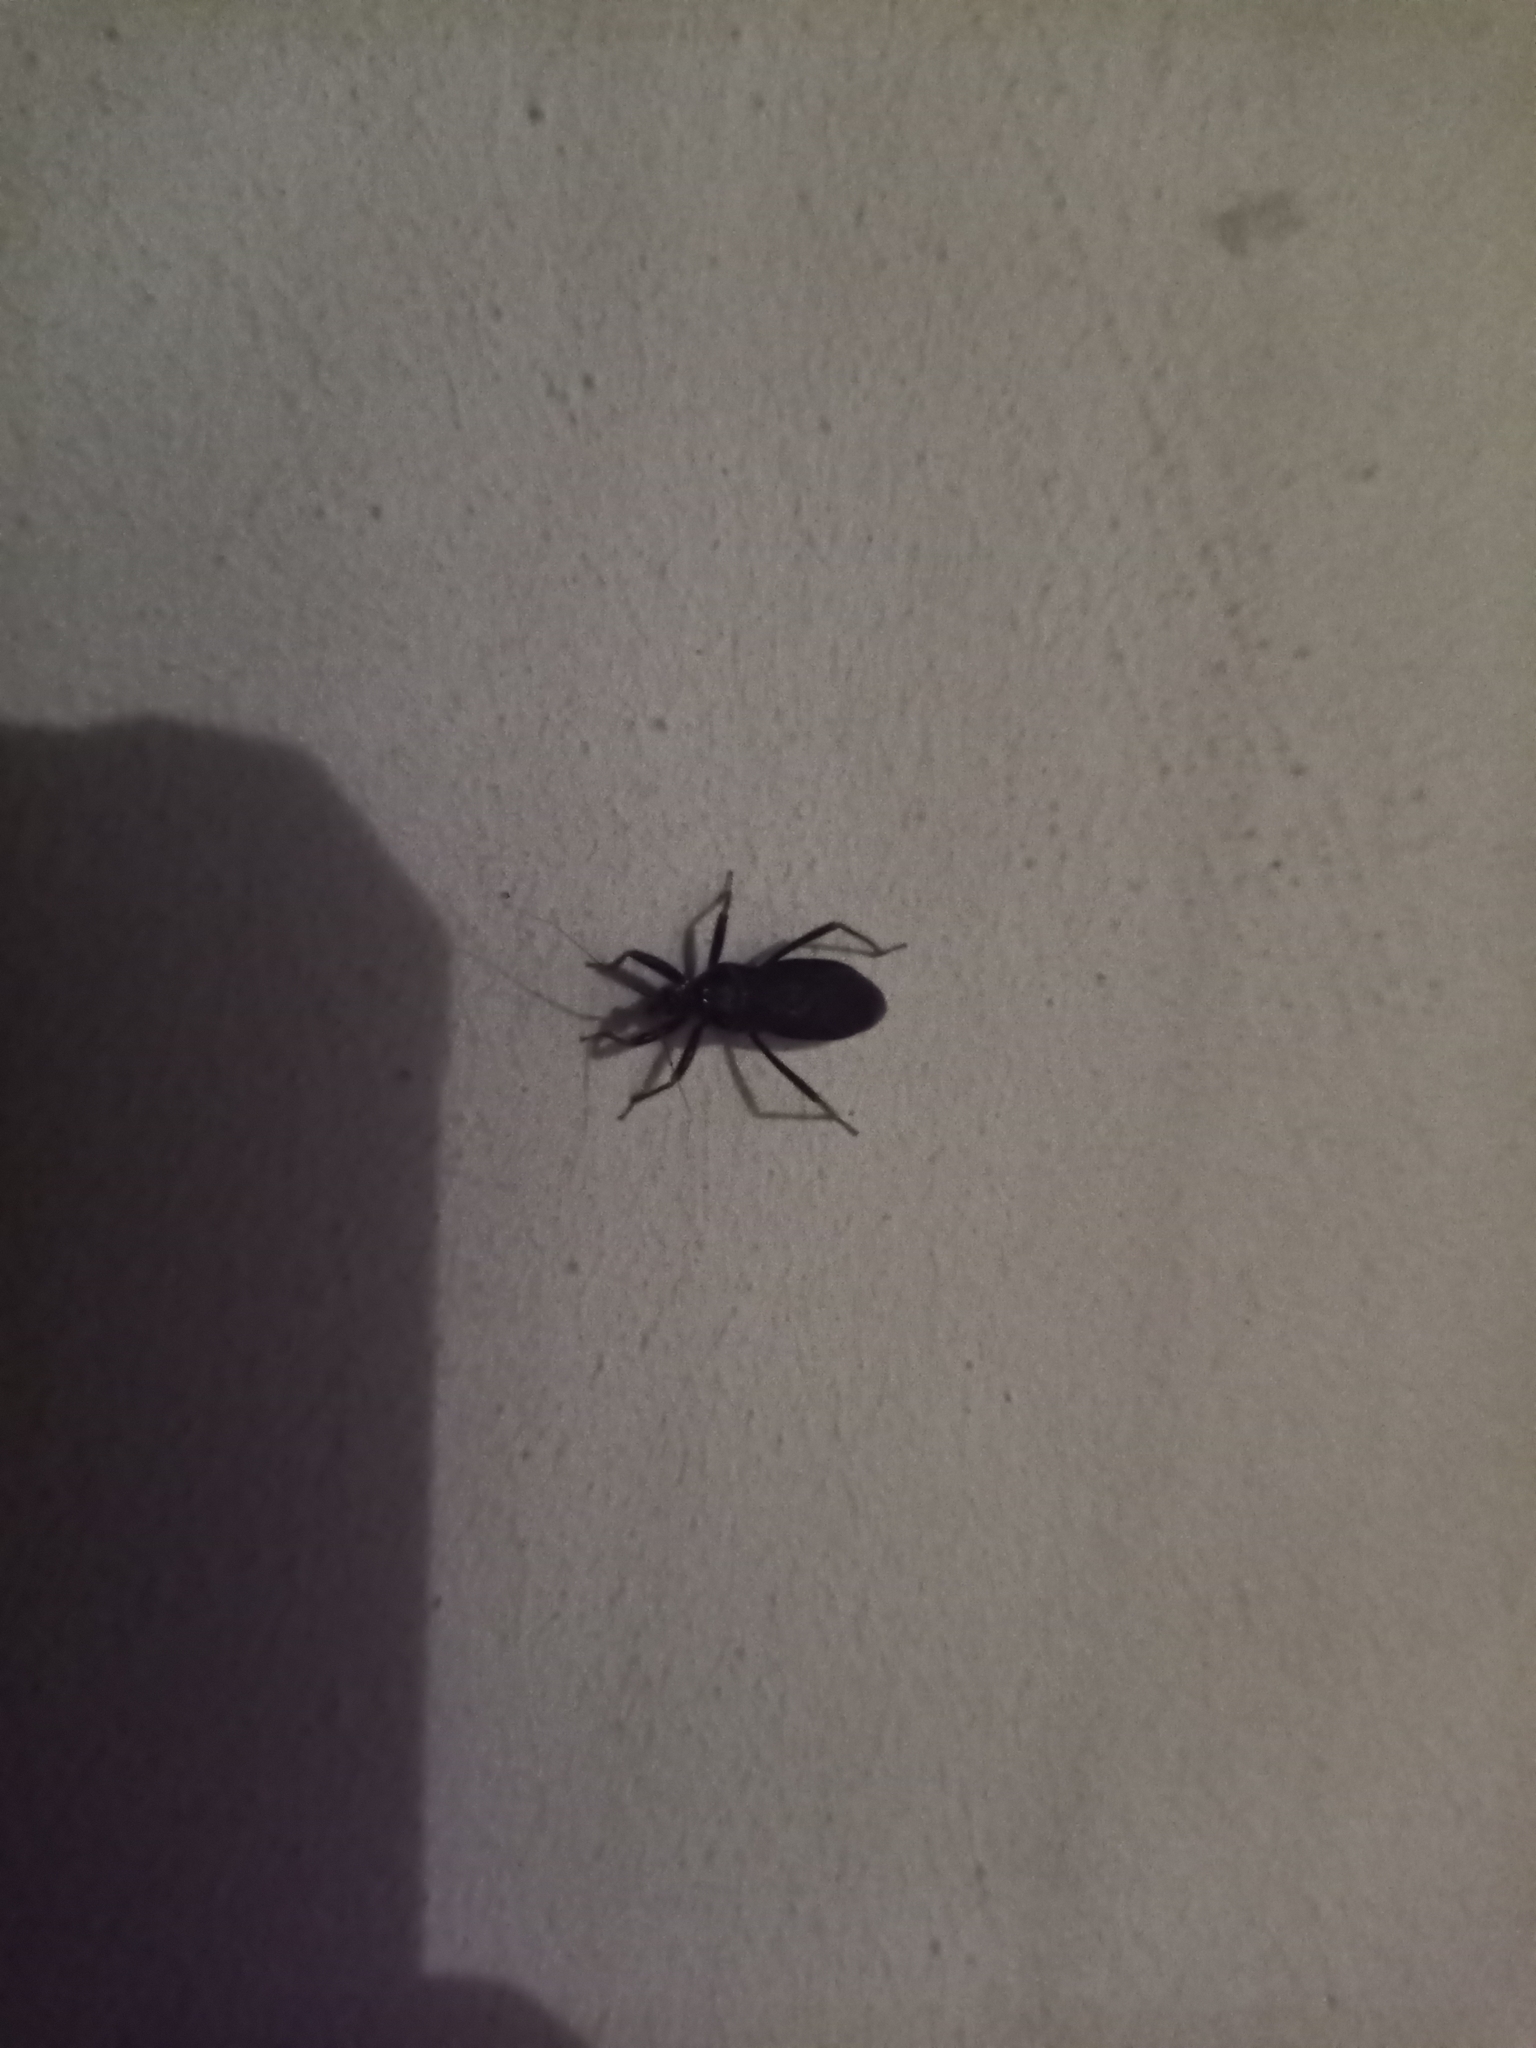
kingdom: Animalia
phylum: Arthropoda
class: Insecta
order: Hemiptera
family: Reduviidae
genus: Reduvius
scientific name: Reduvius personatus
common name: Masked hunter
